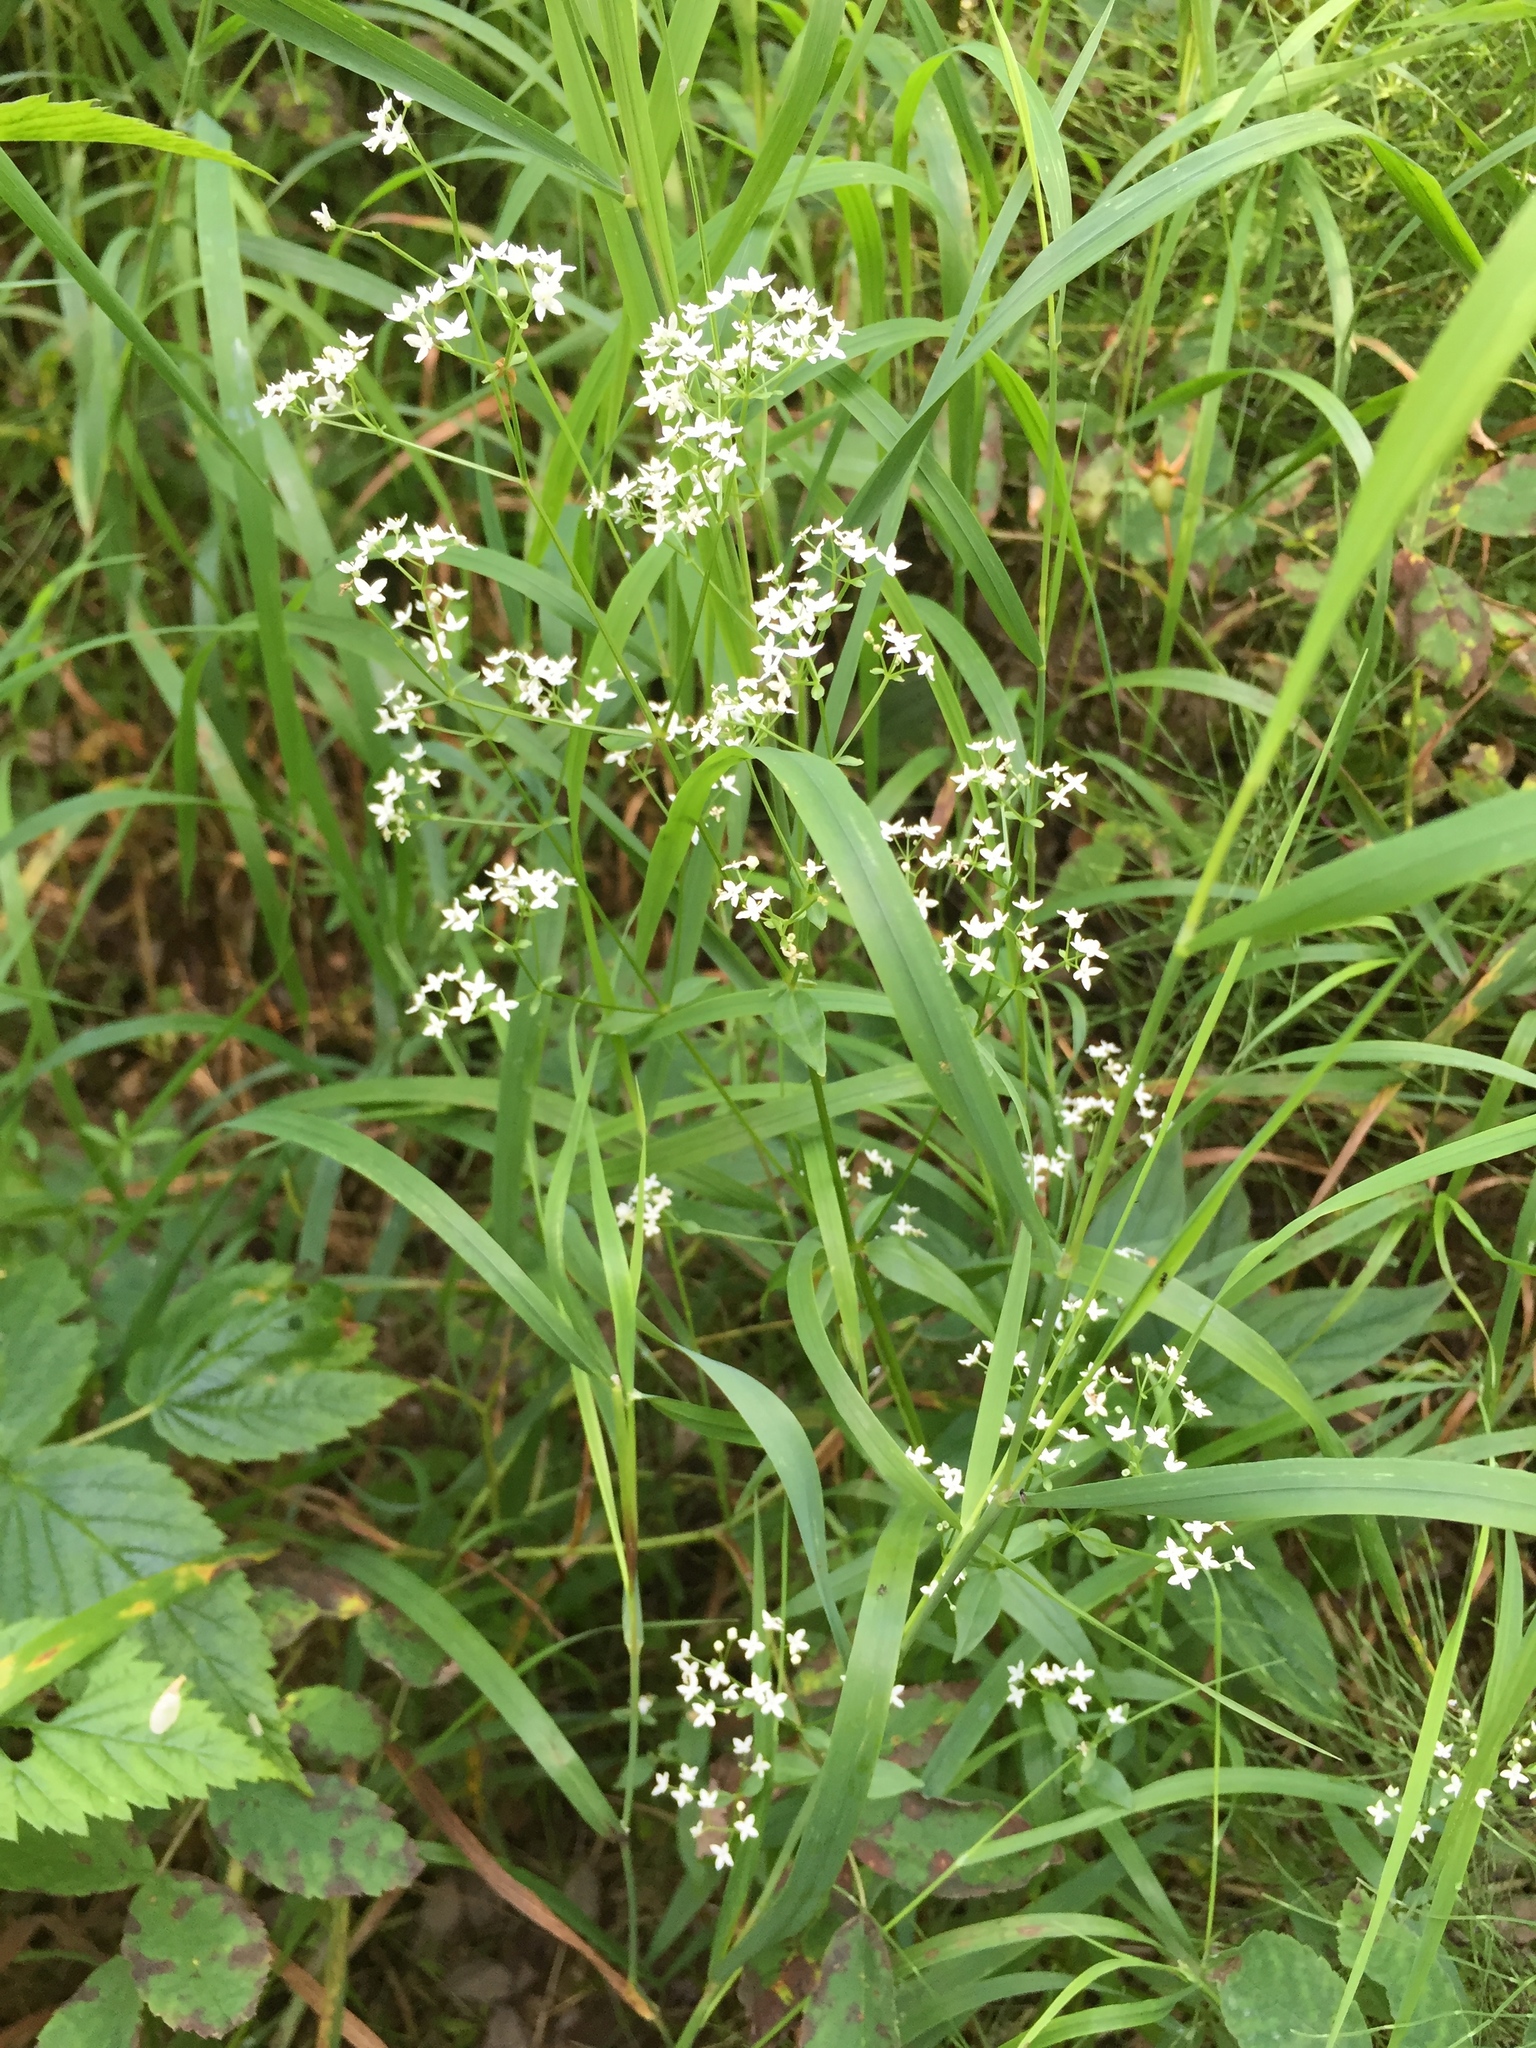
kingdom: Plantae
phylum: Tracheophyta
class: Magnoliopsida
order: Gentianales
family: Rubiaceae
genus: Galium
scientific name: Galium boreale
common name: Northern bedstraw
